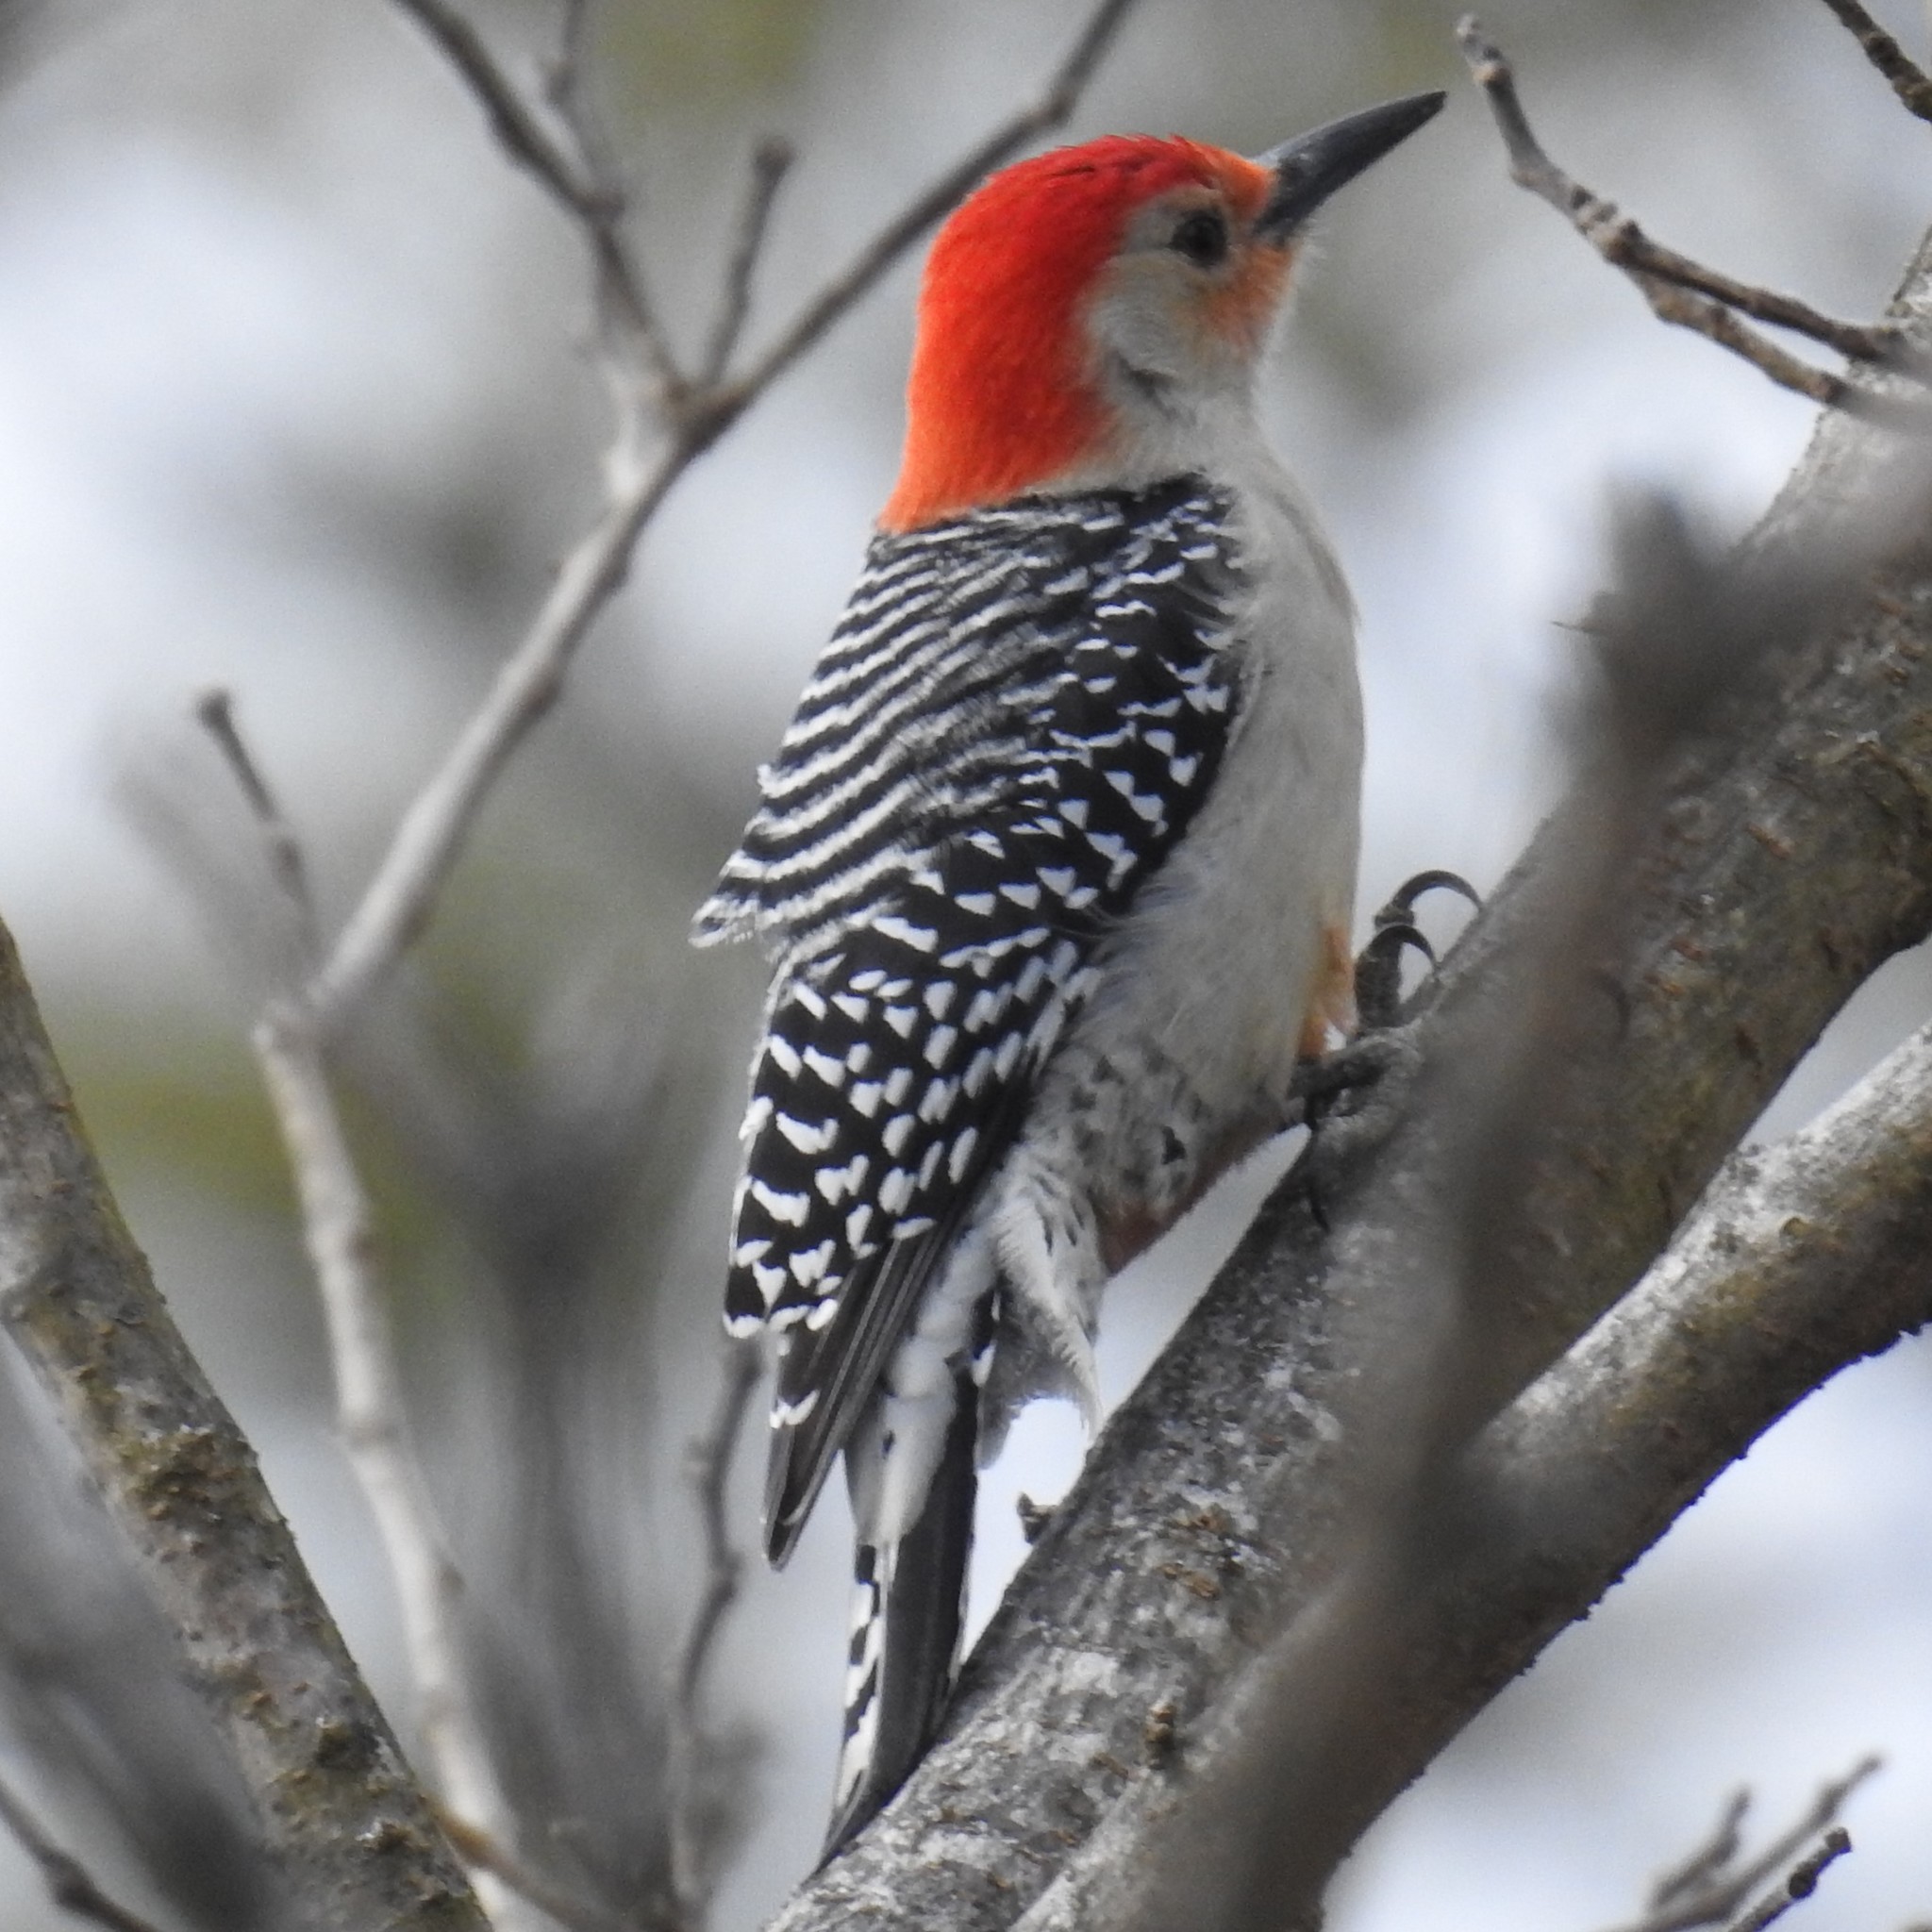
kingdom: Animalia
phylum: Chordata
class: Aves
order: Piciformes
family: Picidae
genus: Melanerpes
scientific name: Melanerpes carolinus
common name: Red-bellied woodpecker
